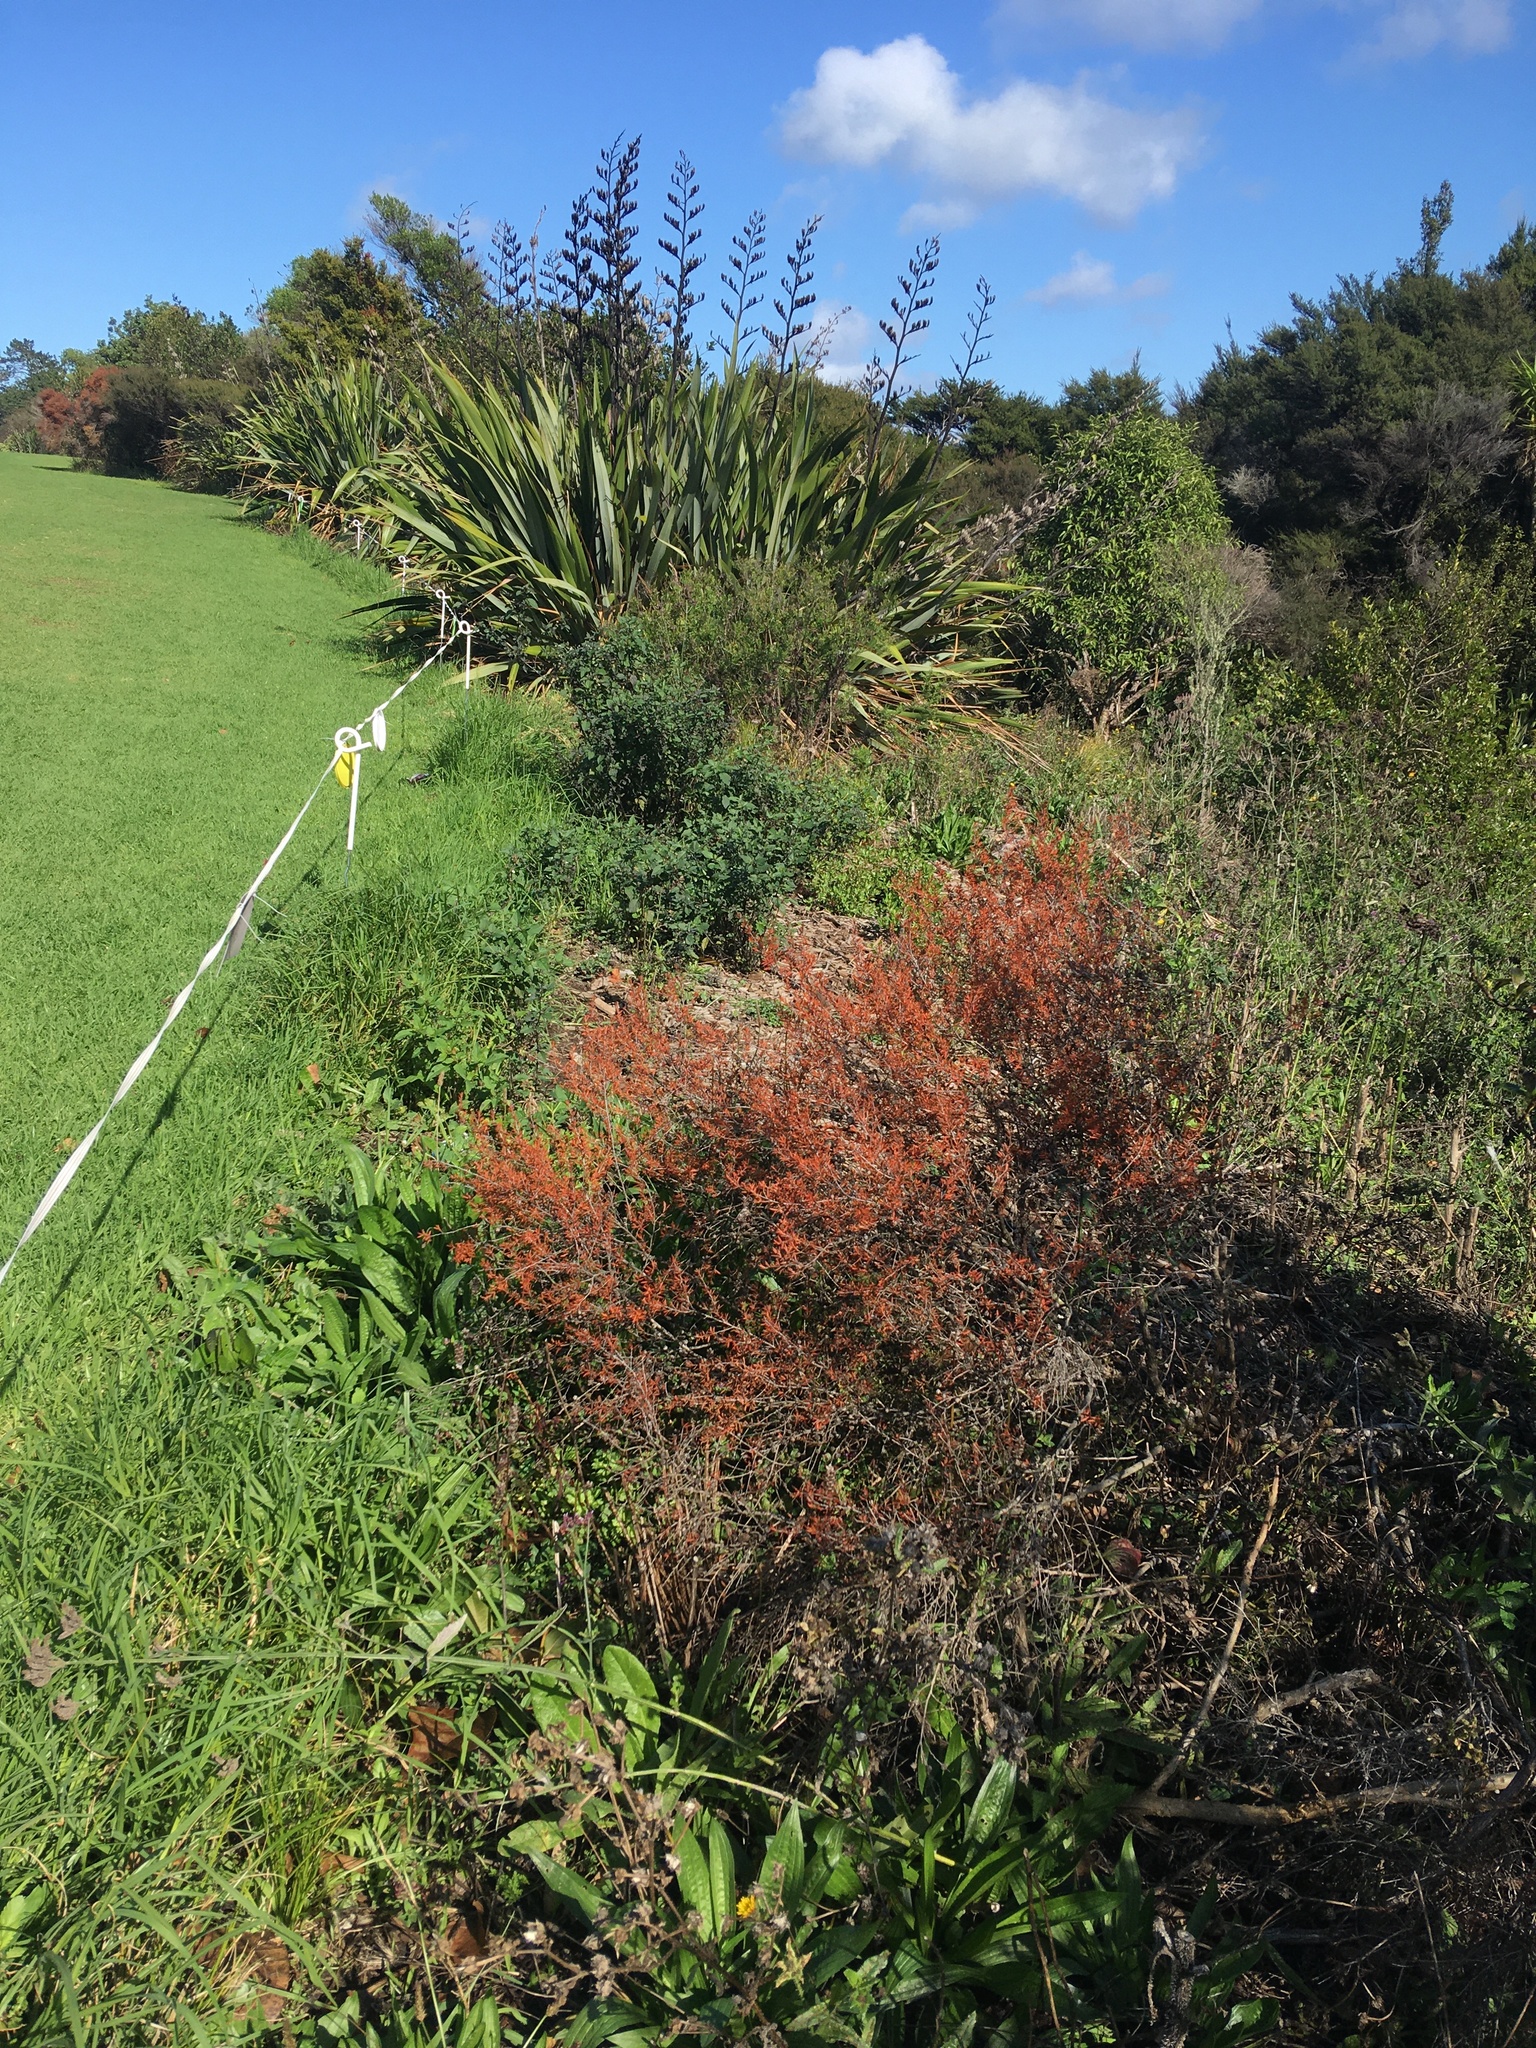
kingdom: Plantae
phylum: Tracheophyta
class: Magnoliopsida
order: Myrtales
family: Myrtaceae
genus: Leptospermum
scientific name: Leptospermum scoparium
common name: Broom tea-tree
